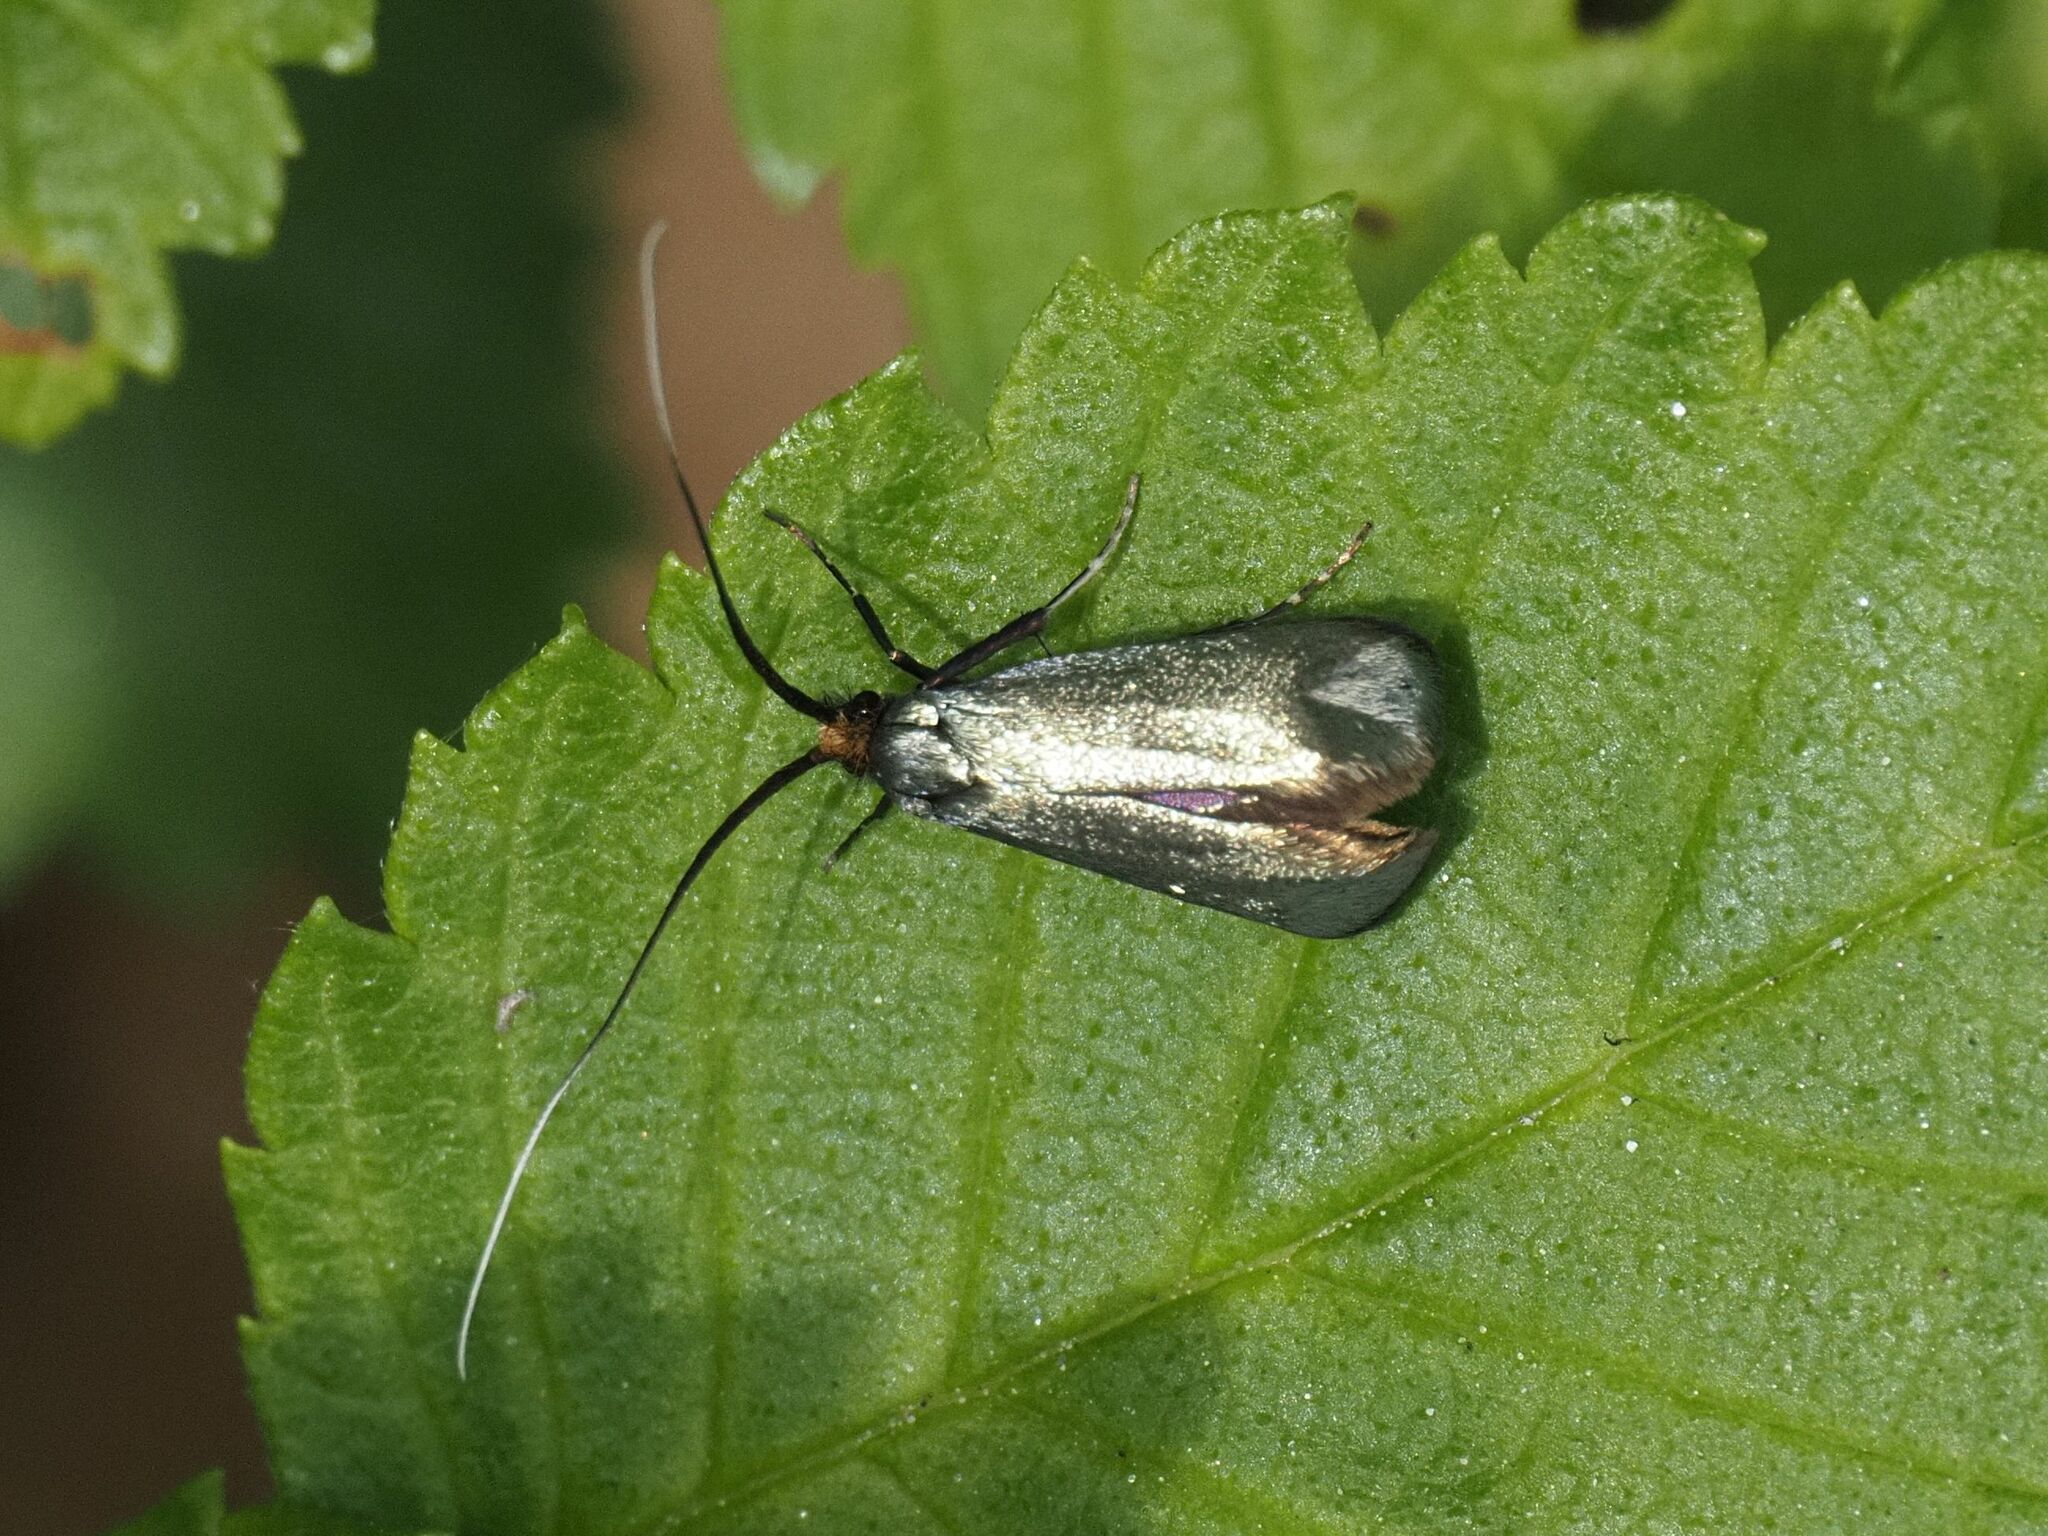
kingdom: Animalia
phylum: Arthropoda
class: Insecta
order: Lepidoptera
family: Adelidae
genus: Adela
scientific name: Adela viridella
